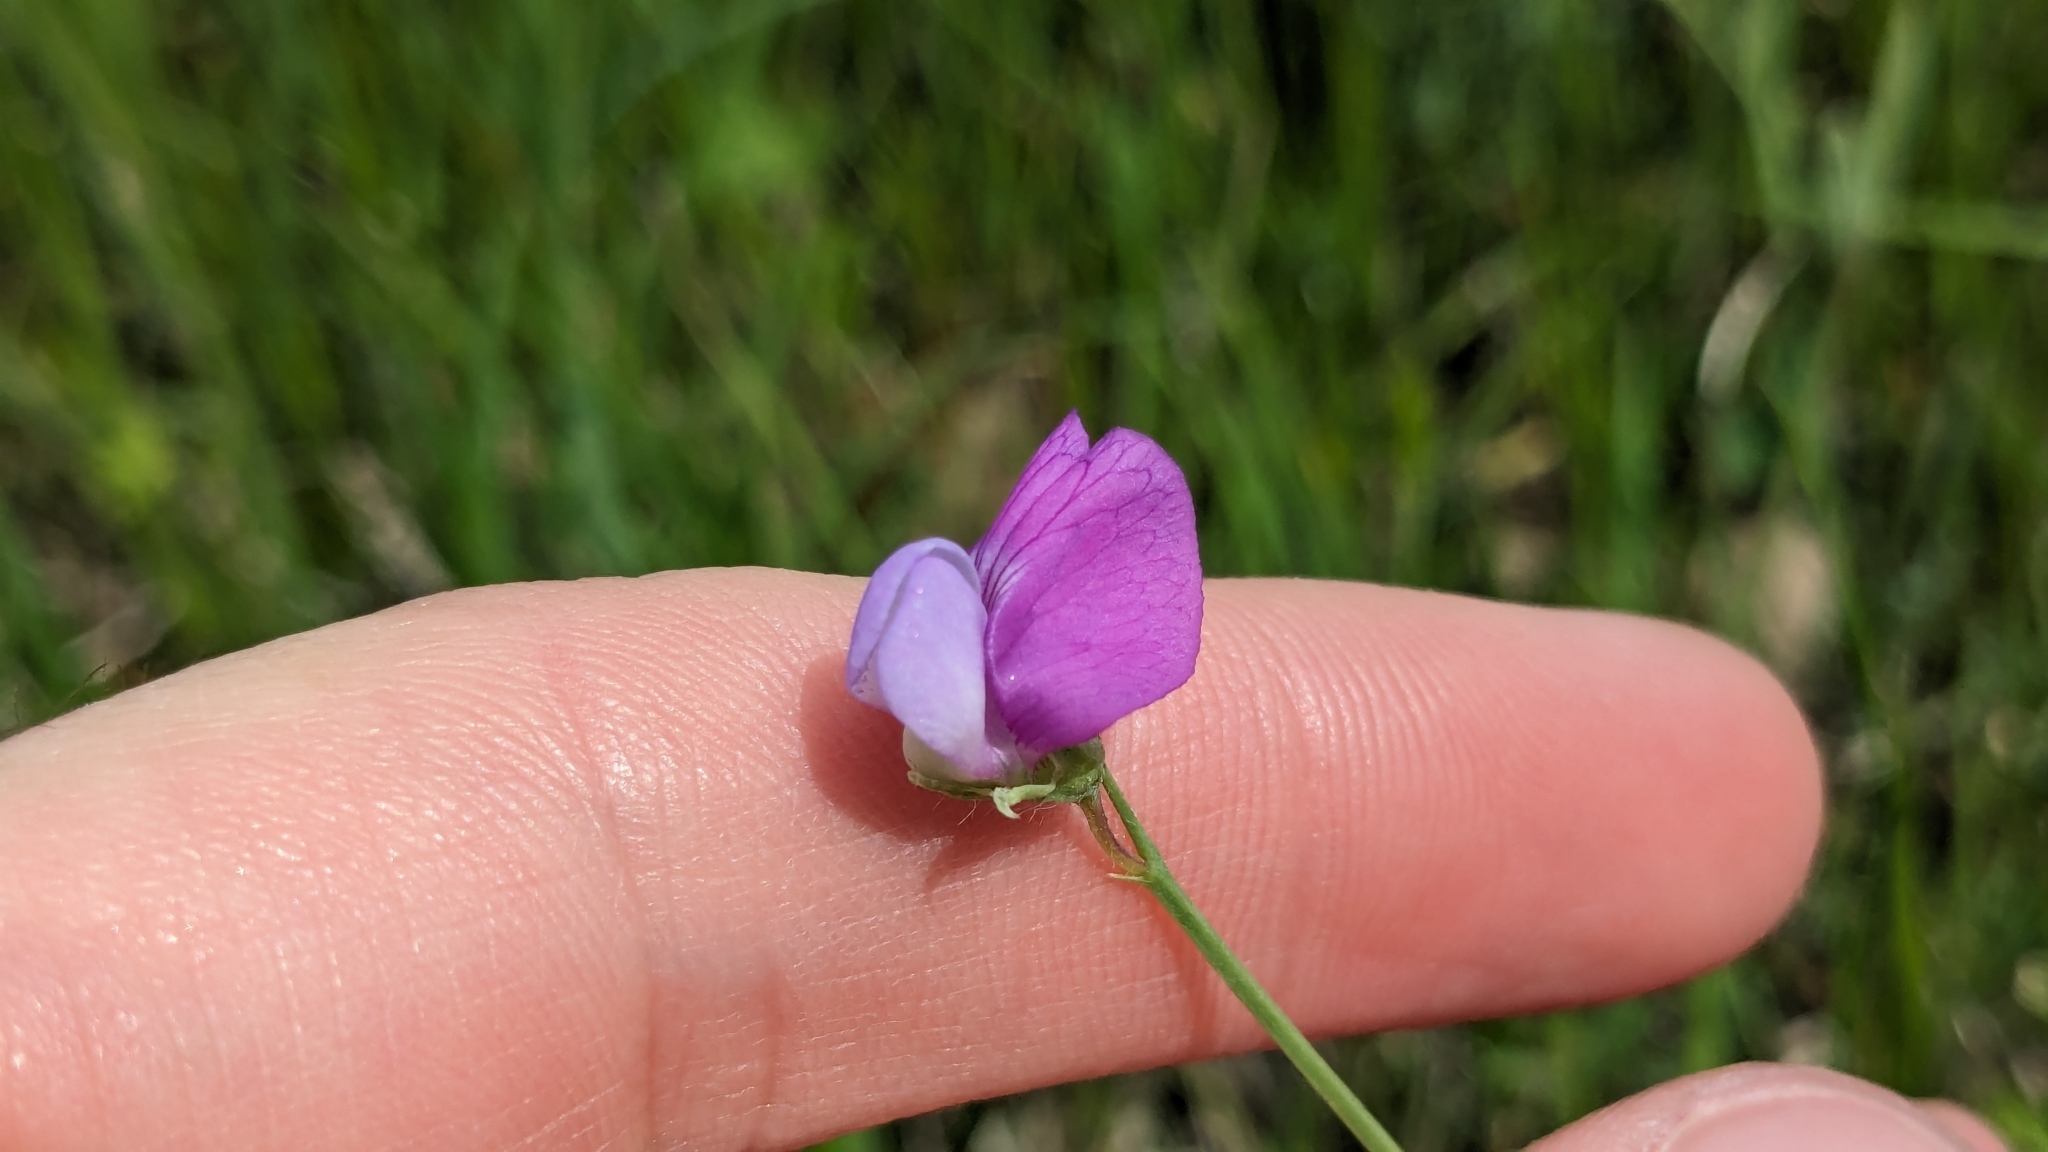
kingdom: Plantae
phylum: Tracheophyta
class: Magnoliopsida
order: Fabales
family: Fabaceae
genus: Lathyrus
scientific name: Lathyrus hirsutus
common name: Hairy vetchling
